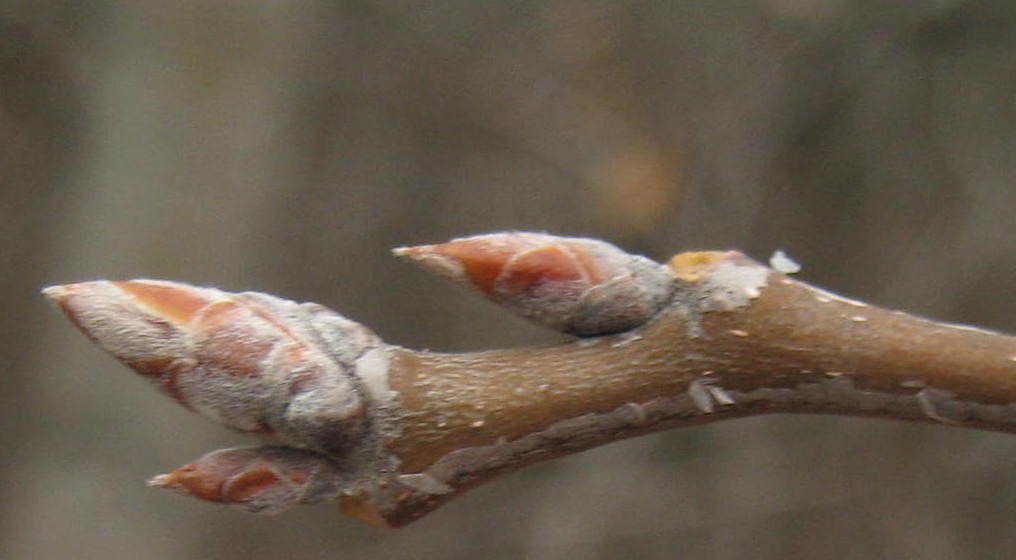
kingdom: Plantae
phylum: Tracheophyta
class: Magnoliopsida
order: Malpighiales
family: Salicaceae
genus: Populus
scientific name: Populus grandidentata
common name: Bigtooth aspen
